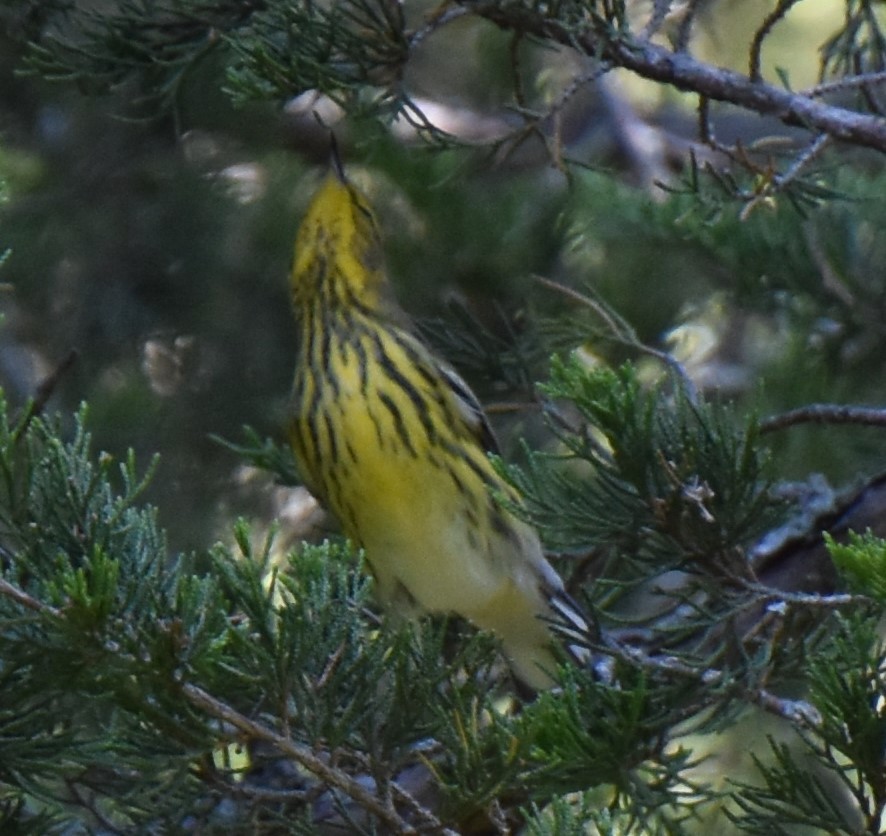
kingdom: Animalia
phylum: Chordata
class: Aves
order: Passeriformes
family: Parulidae
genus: Setophaga
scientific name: Setophaga tigrina
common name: Cape may warbler
